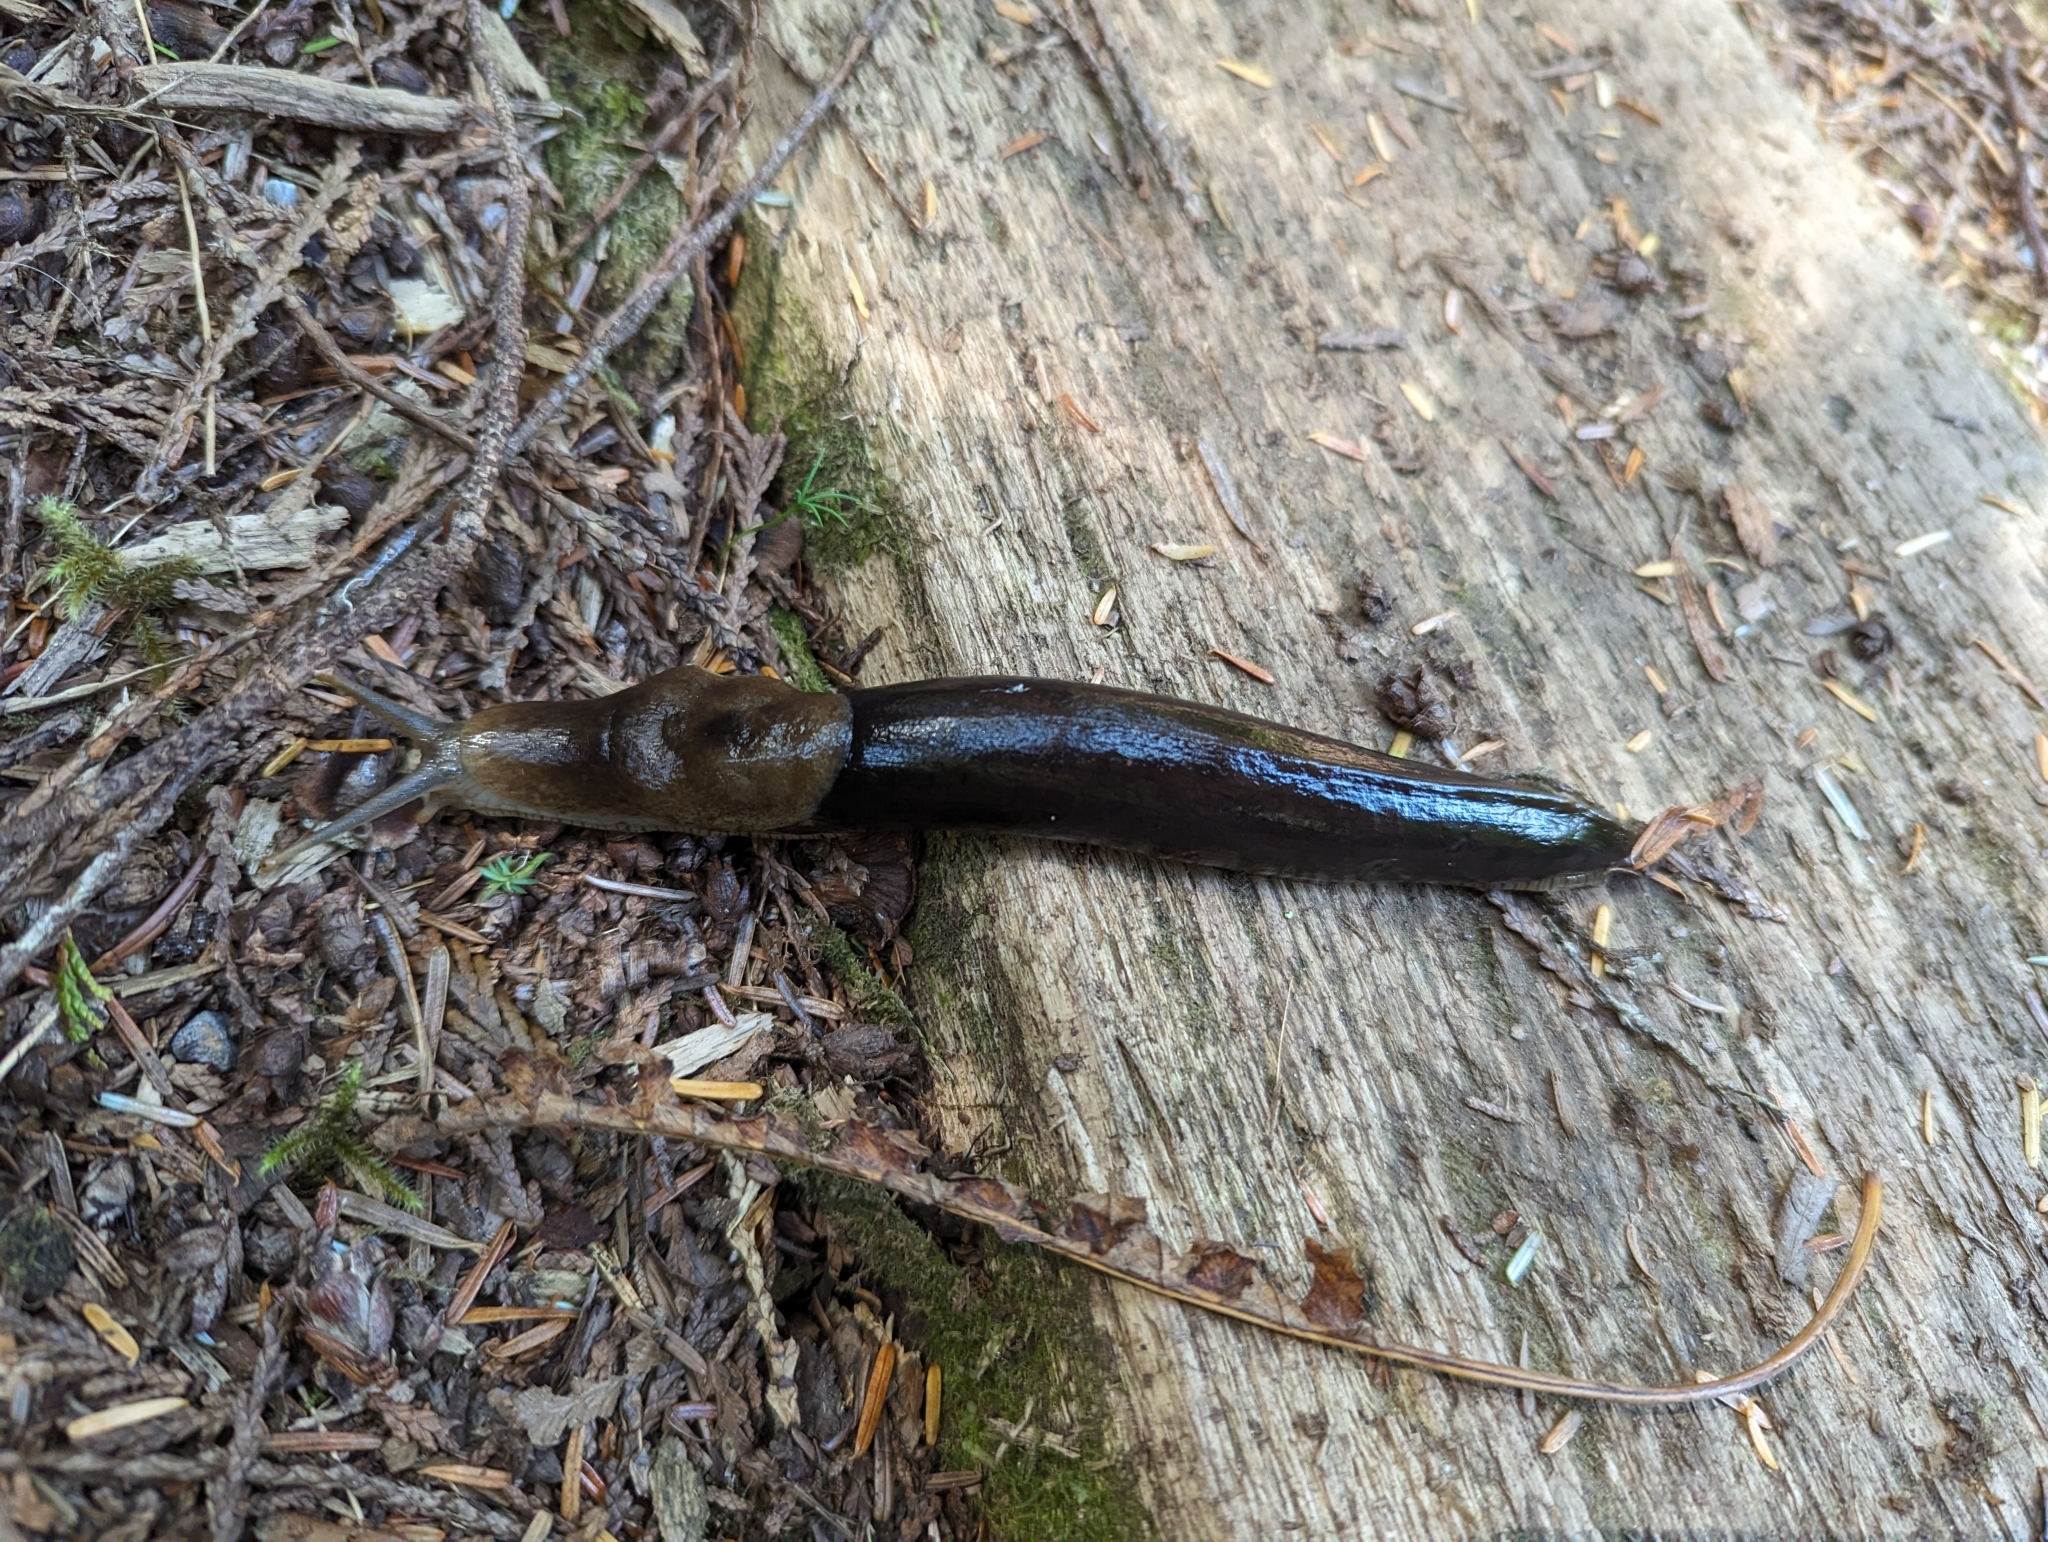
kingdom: Animalia
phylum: Mollusca
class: Gastropoda
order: Stylommatophora
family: Ariolimacidae
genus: Ariolimax
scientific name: Ariolimax columbianus
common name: Pacific banana slug
